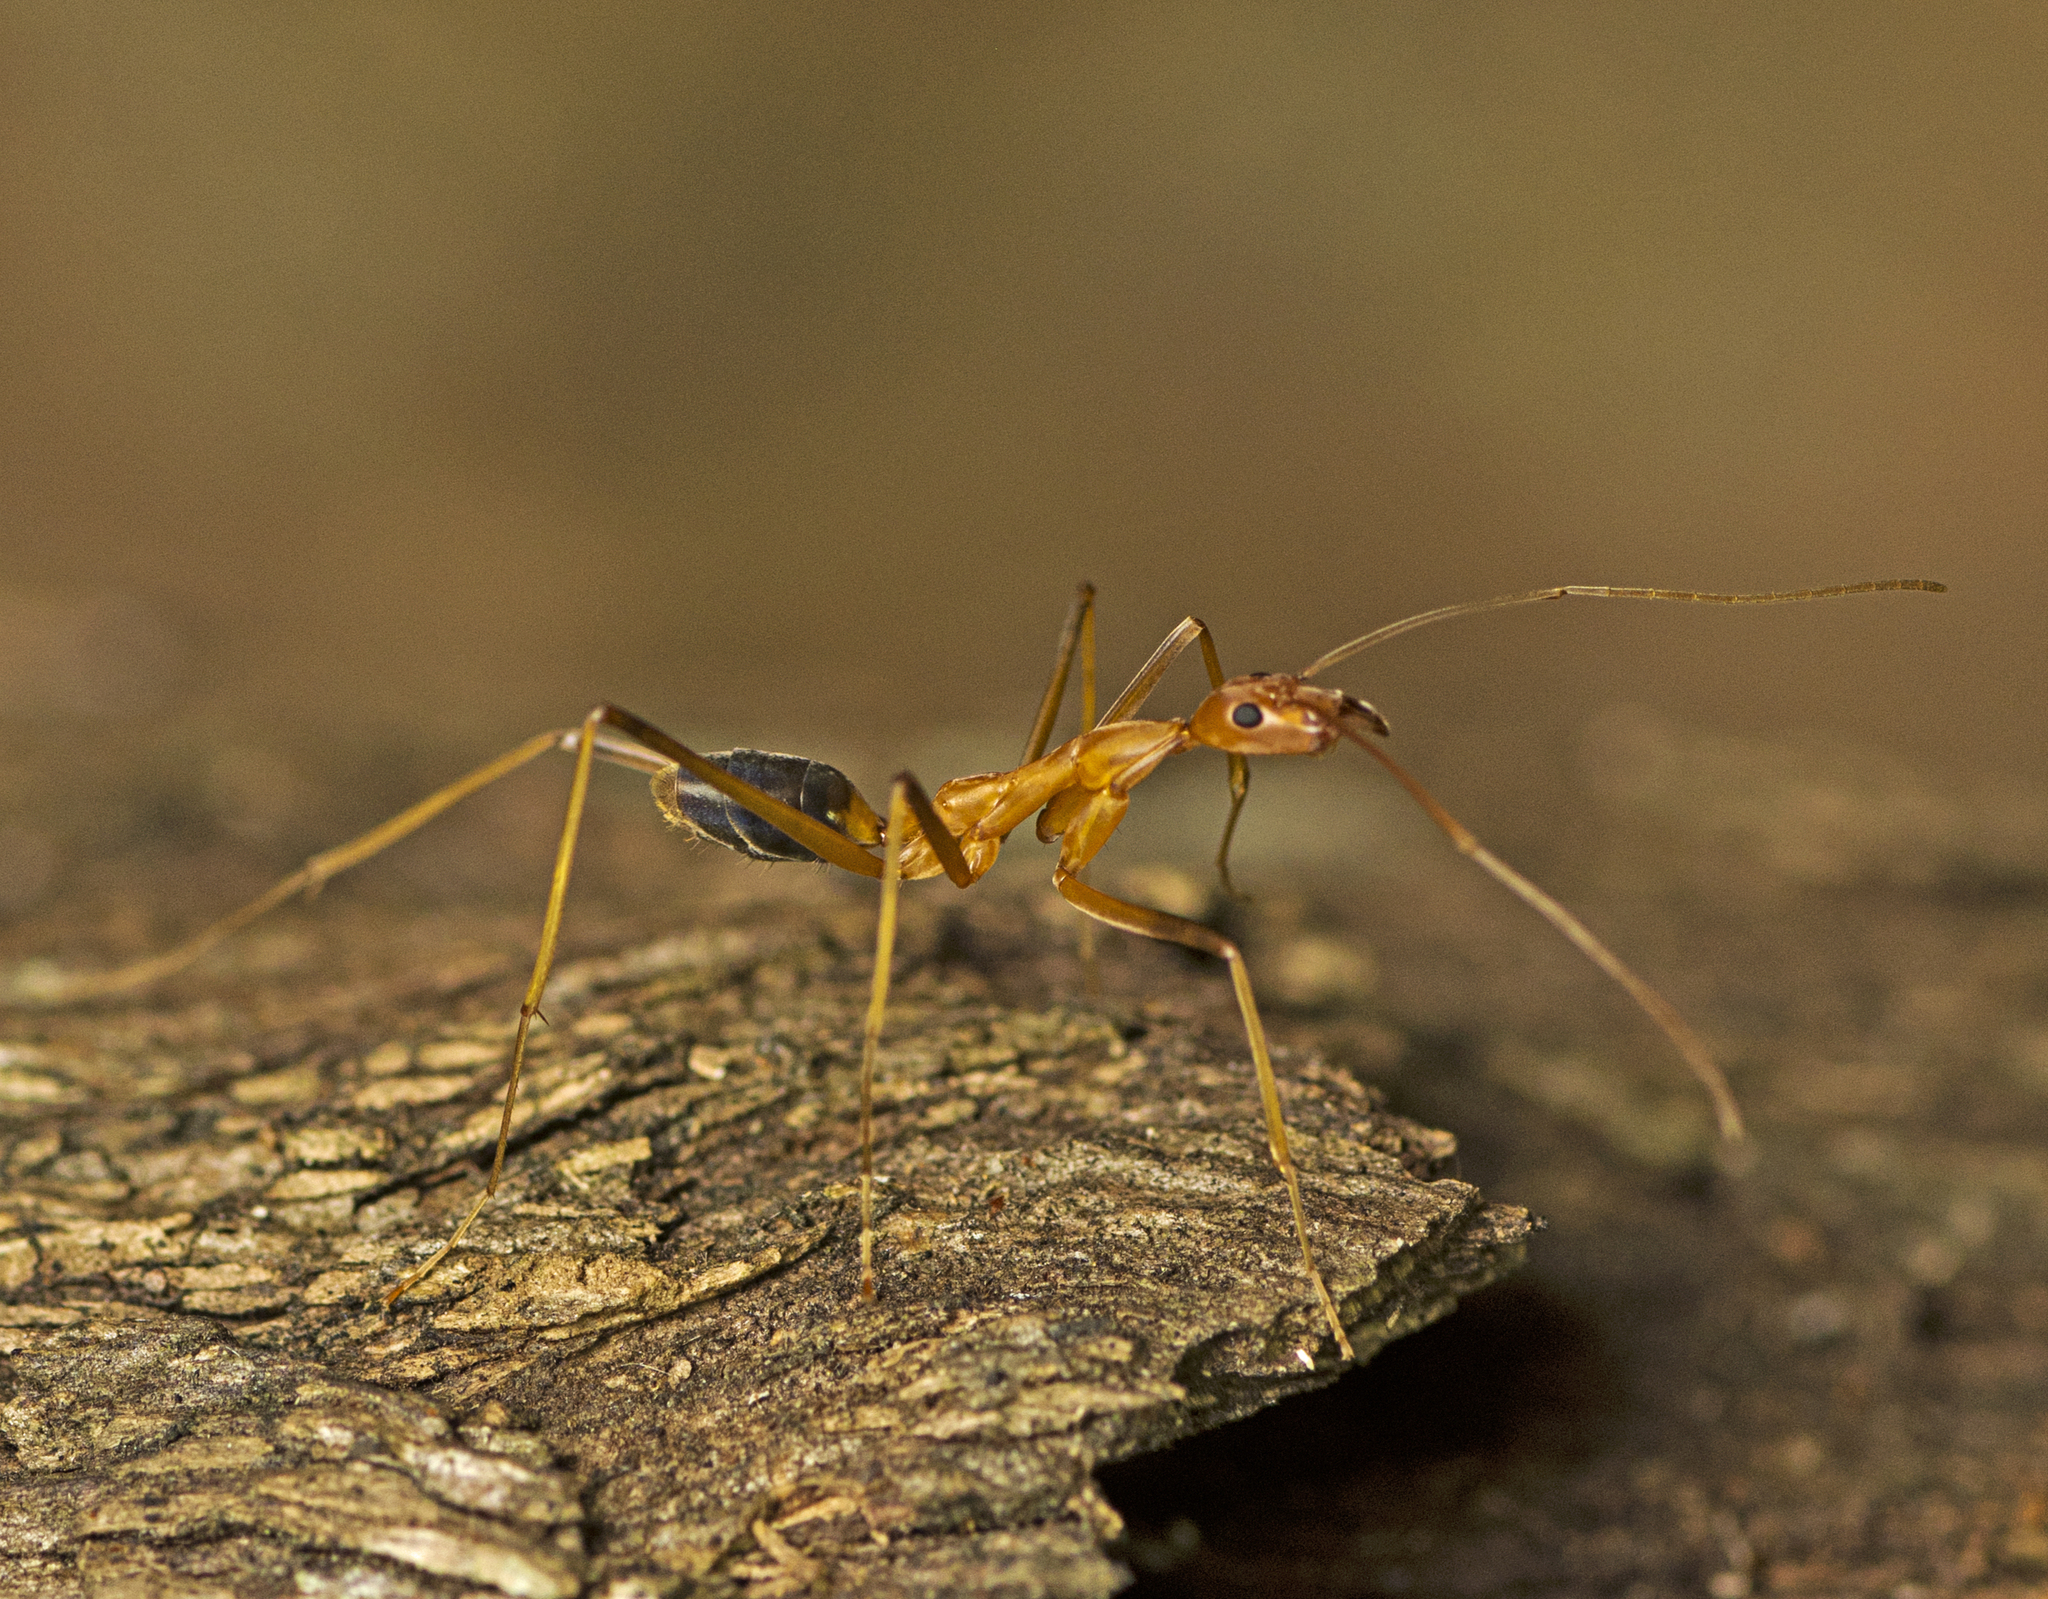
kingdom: Animalia
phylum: Arthropoda
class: Insecta
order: Hymenoptera
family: Formicidae
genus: Leptomyrmex
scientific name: Leptomyrmex rufipes
